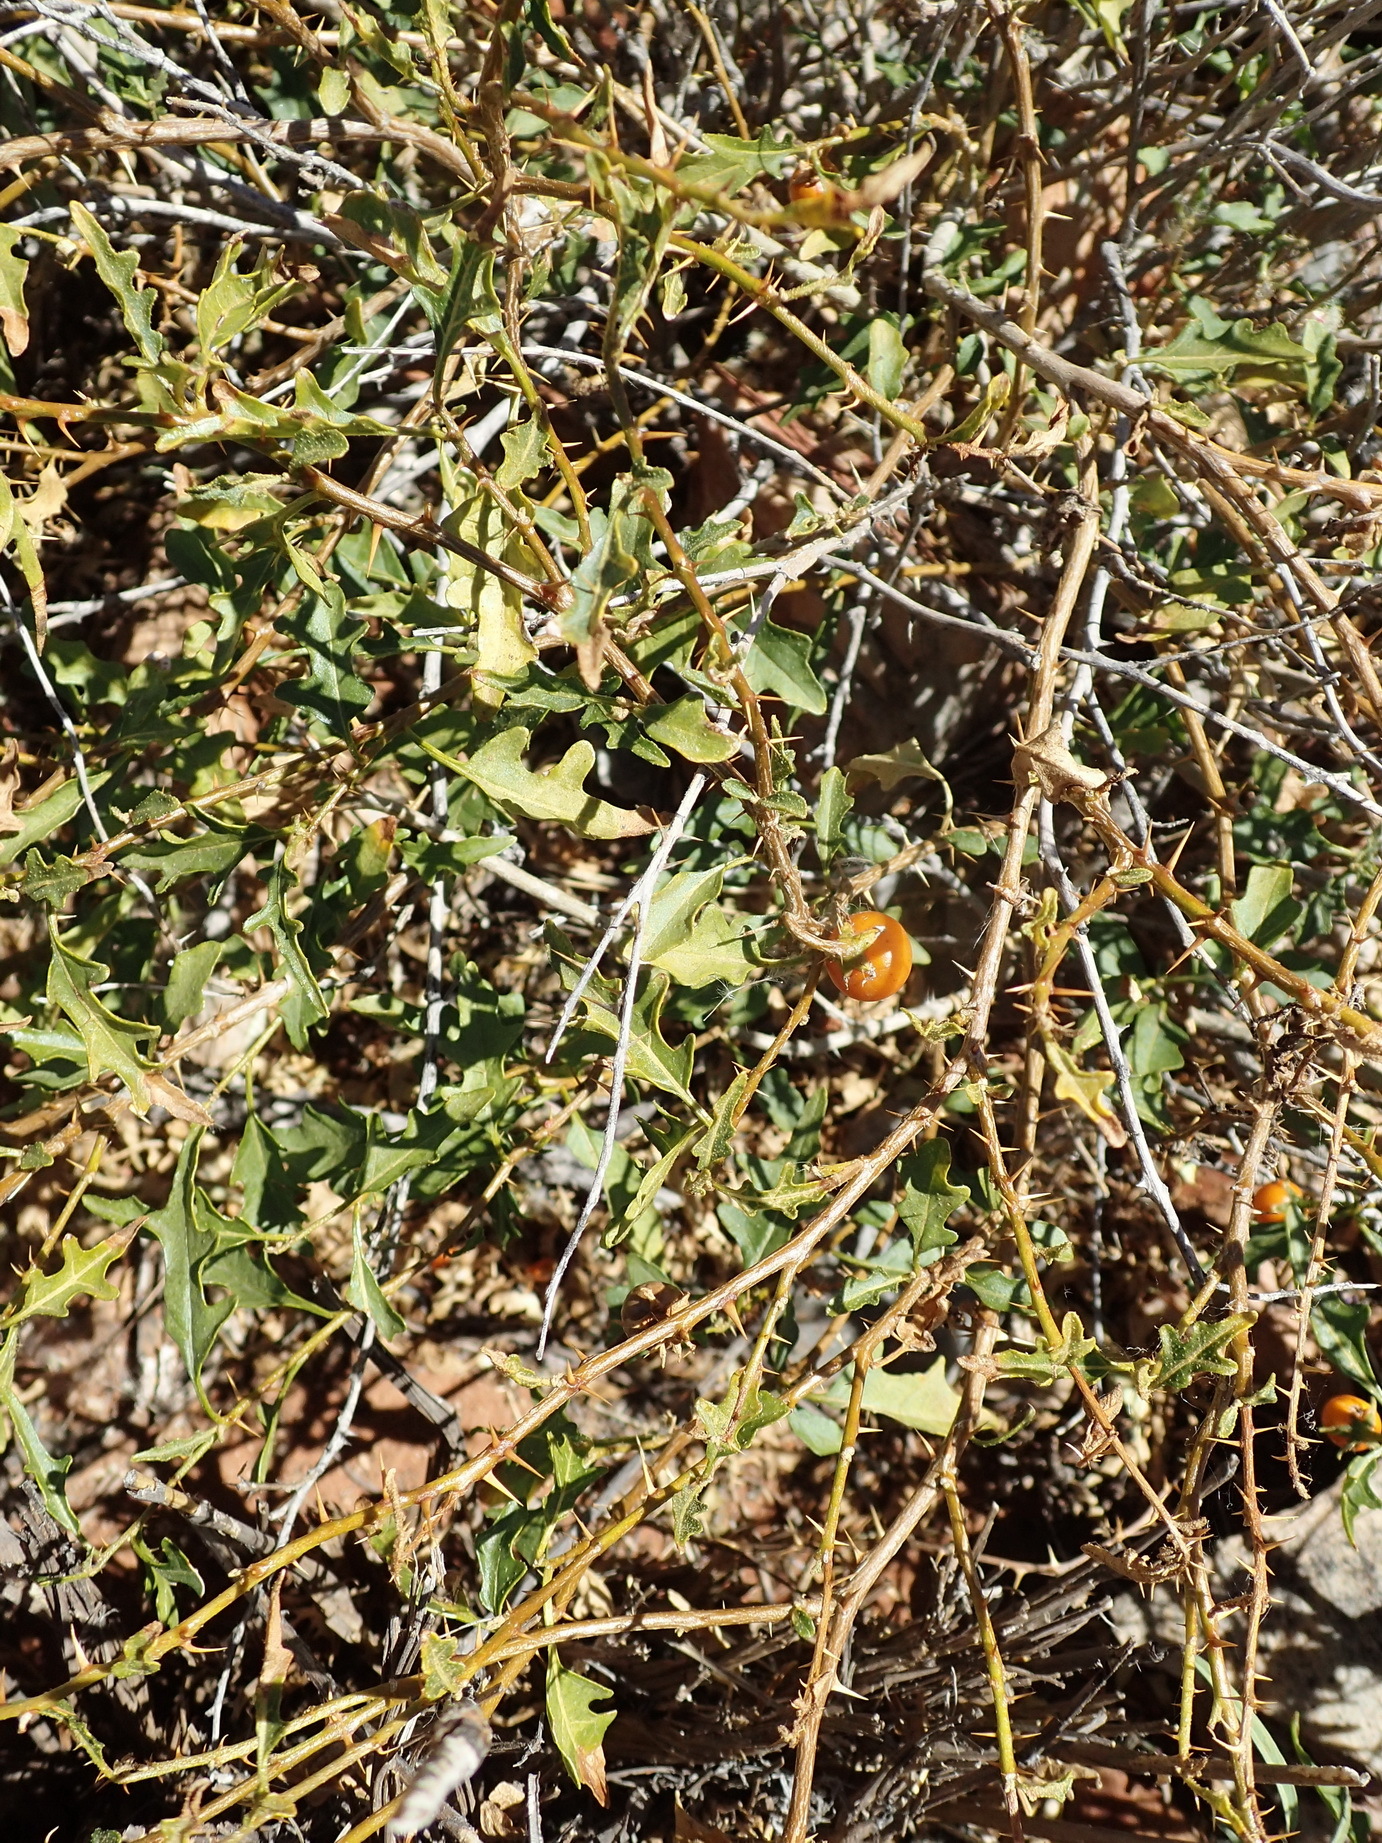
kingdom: Plantae
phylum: Tracheophyta
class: Magnoliopsida
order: Solanales
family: Solanaceae
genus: Solanum
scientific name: Solanum humile
